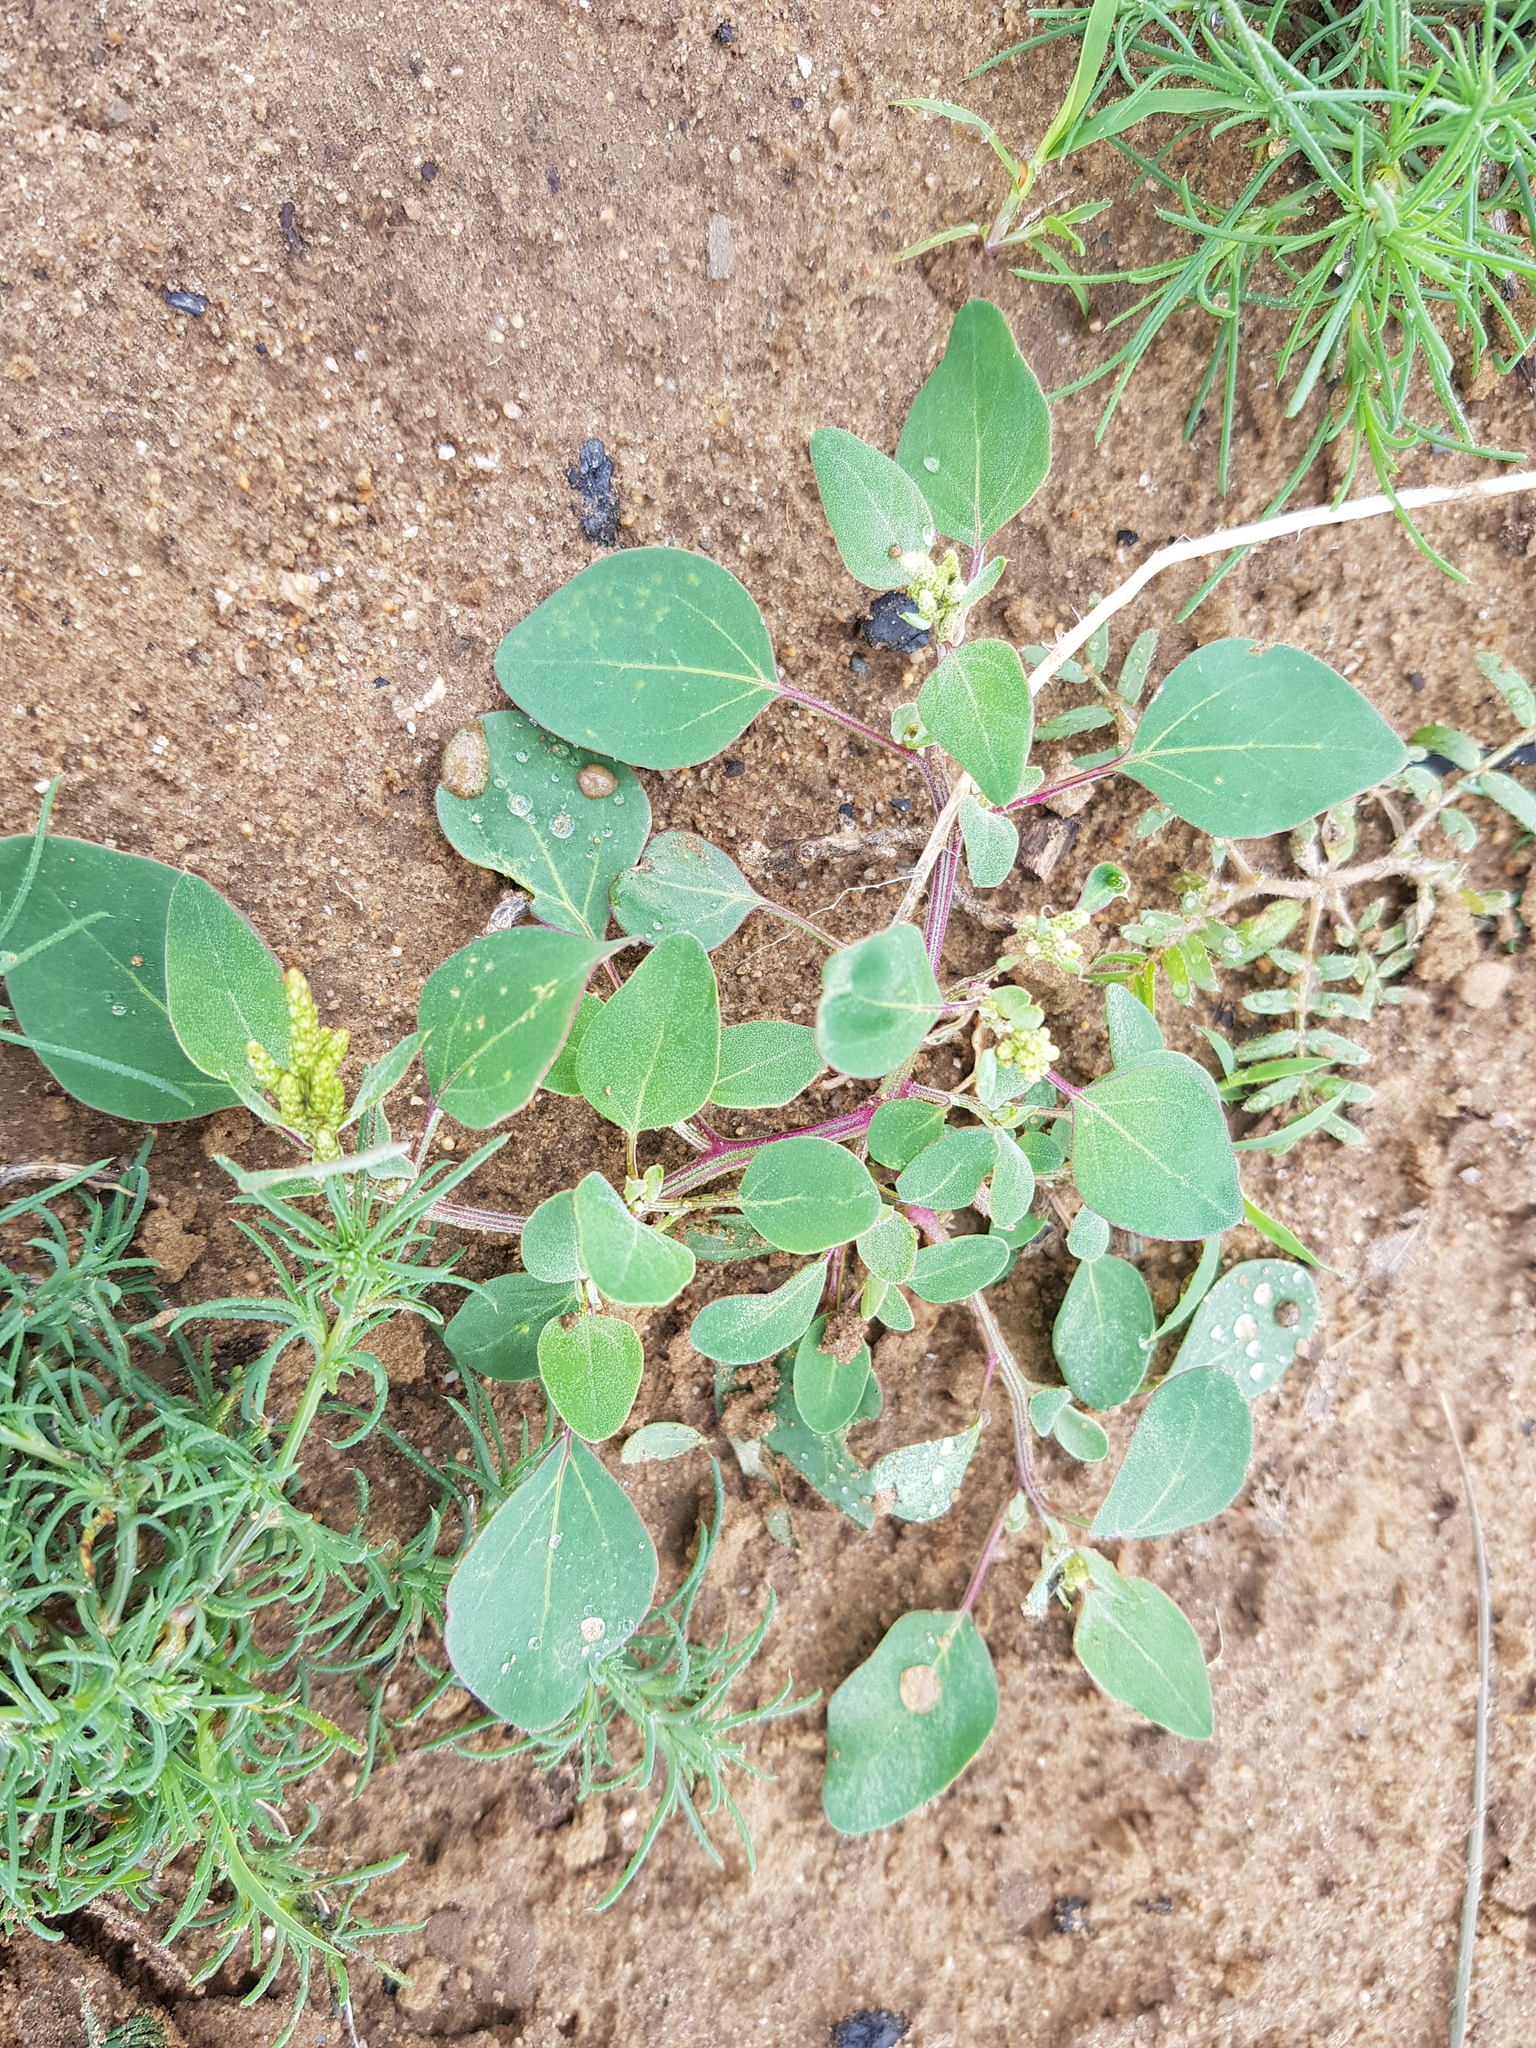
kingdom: Plantae
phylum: Tracheophyta
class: Magnoliopsida
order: Caryophyllales
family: Amaranthaceae
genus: Chenopodium
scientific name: Chenopodium acuminatum
